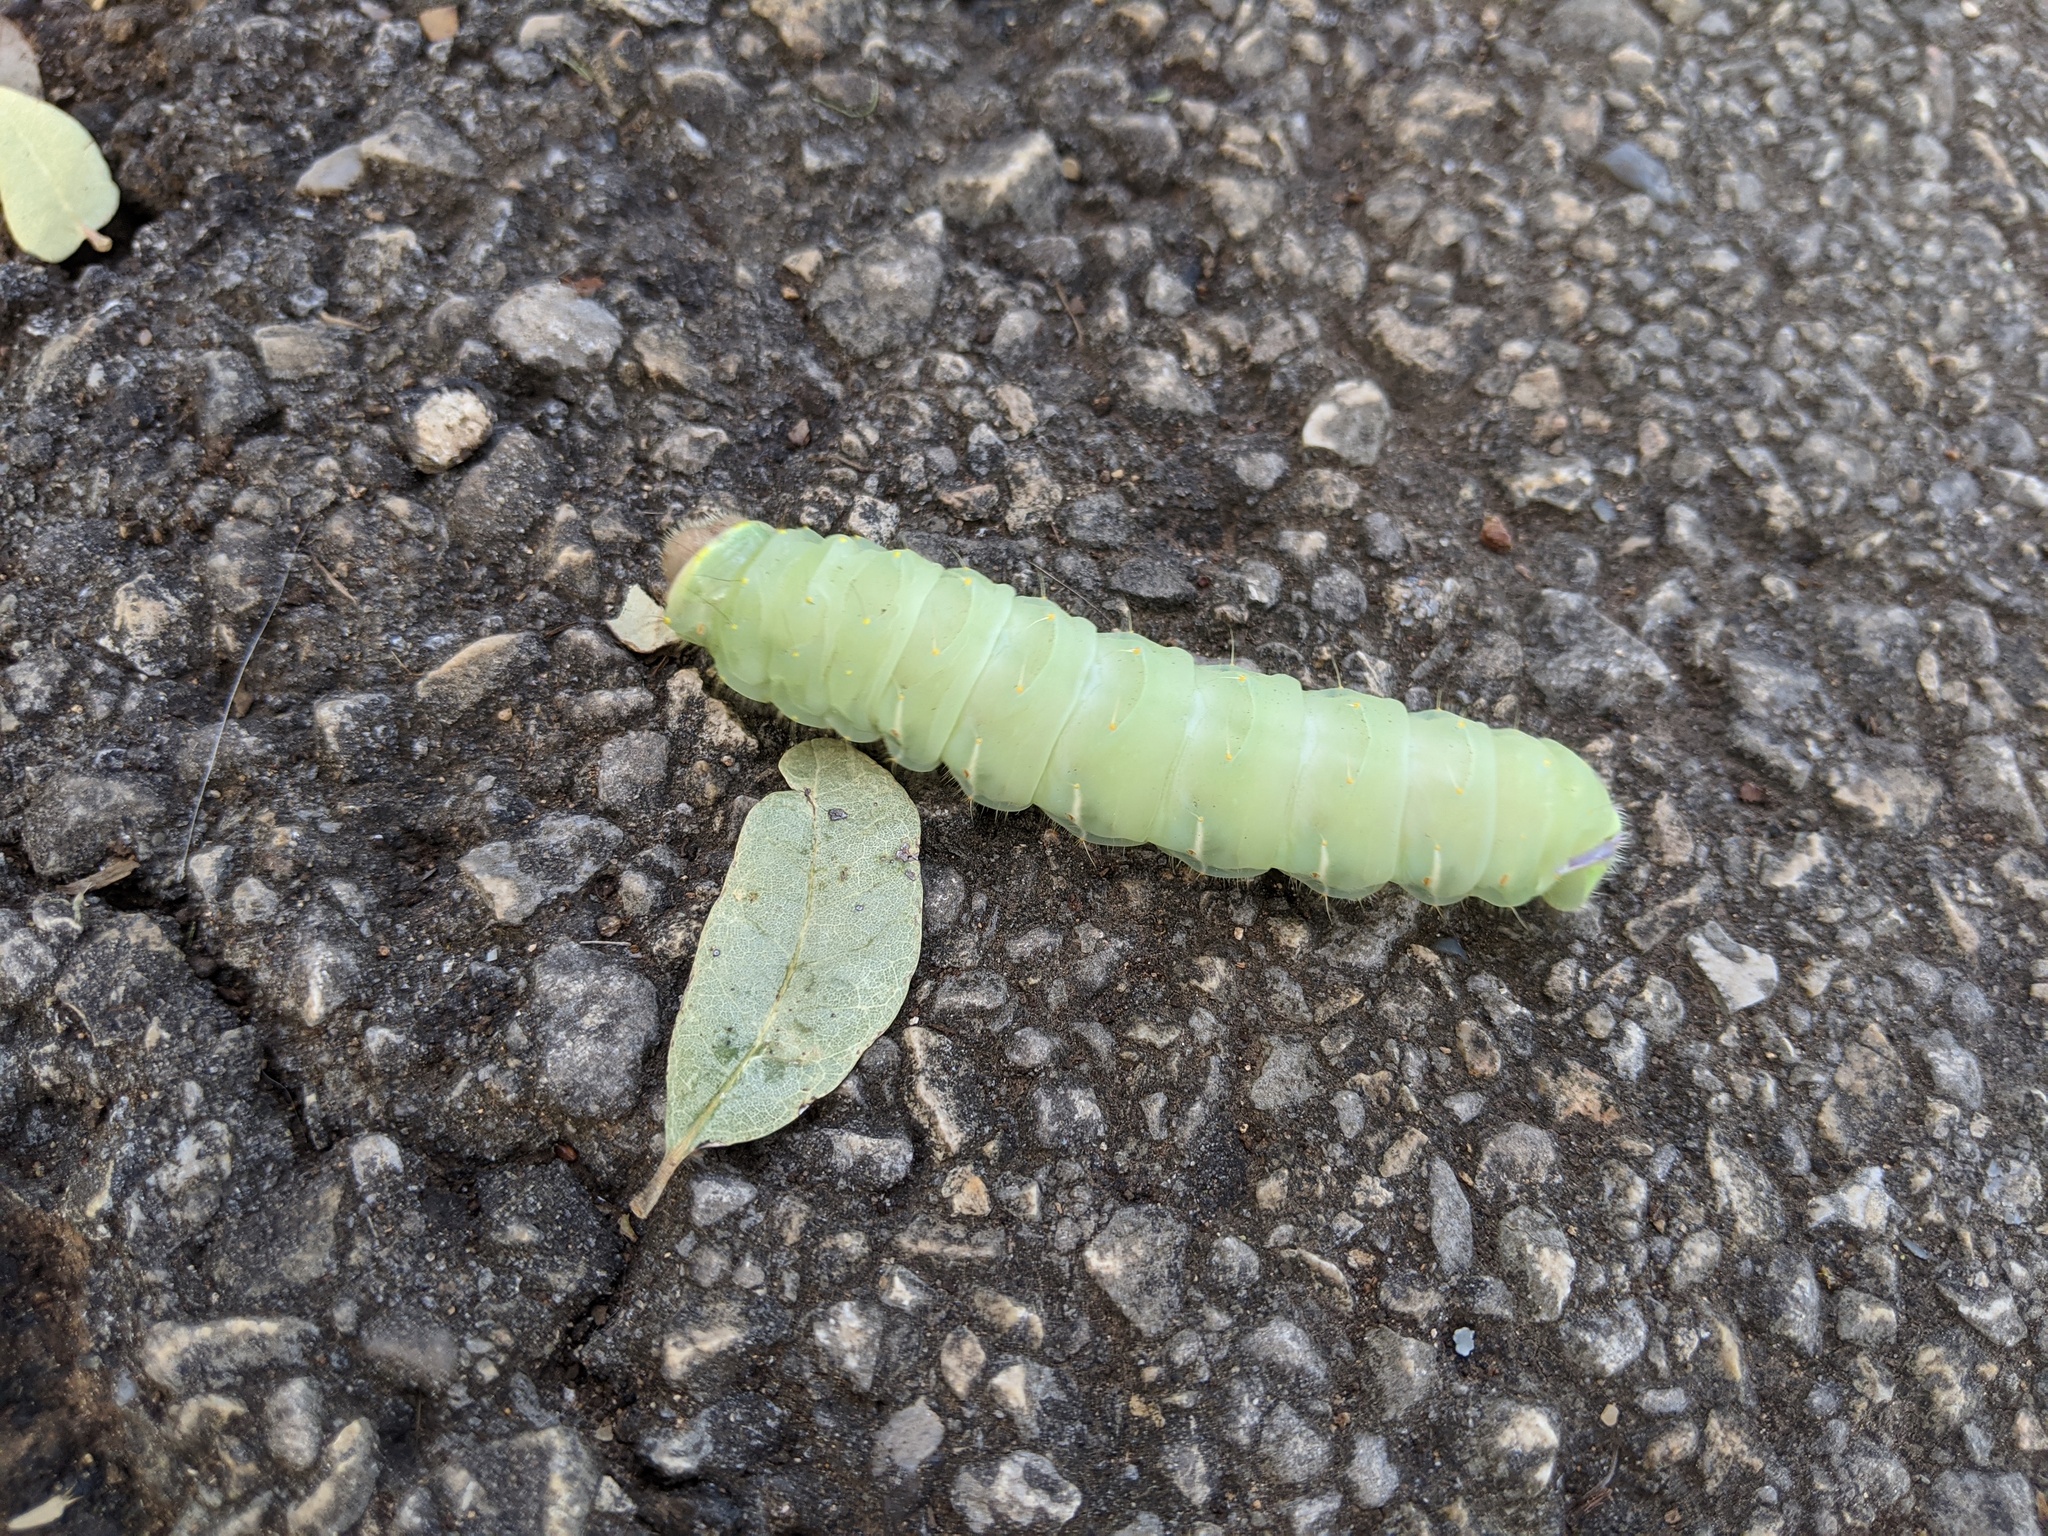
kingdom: Animalia
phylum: Arthropoda
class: Insecta
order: Lepidoptera
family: Saturniidae
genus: Antheraea
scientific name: Antheraea polyphemus
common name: Polyphemus moth
